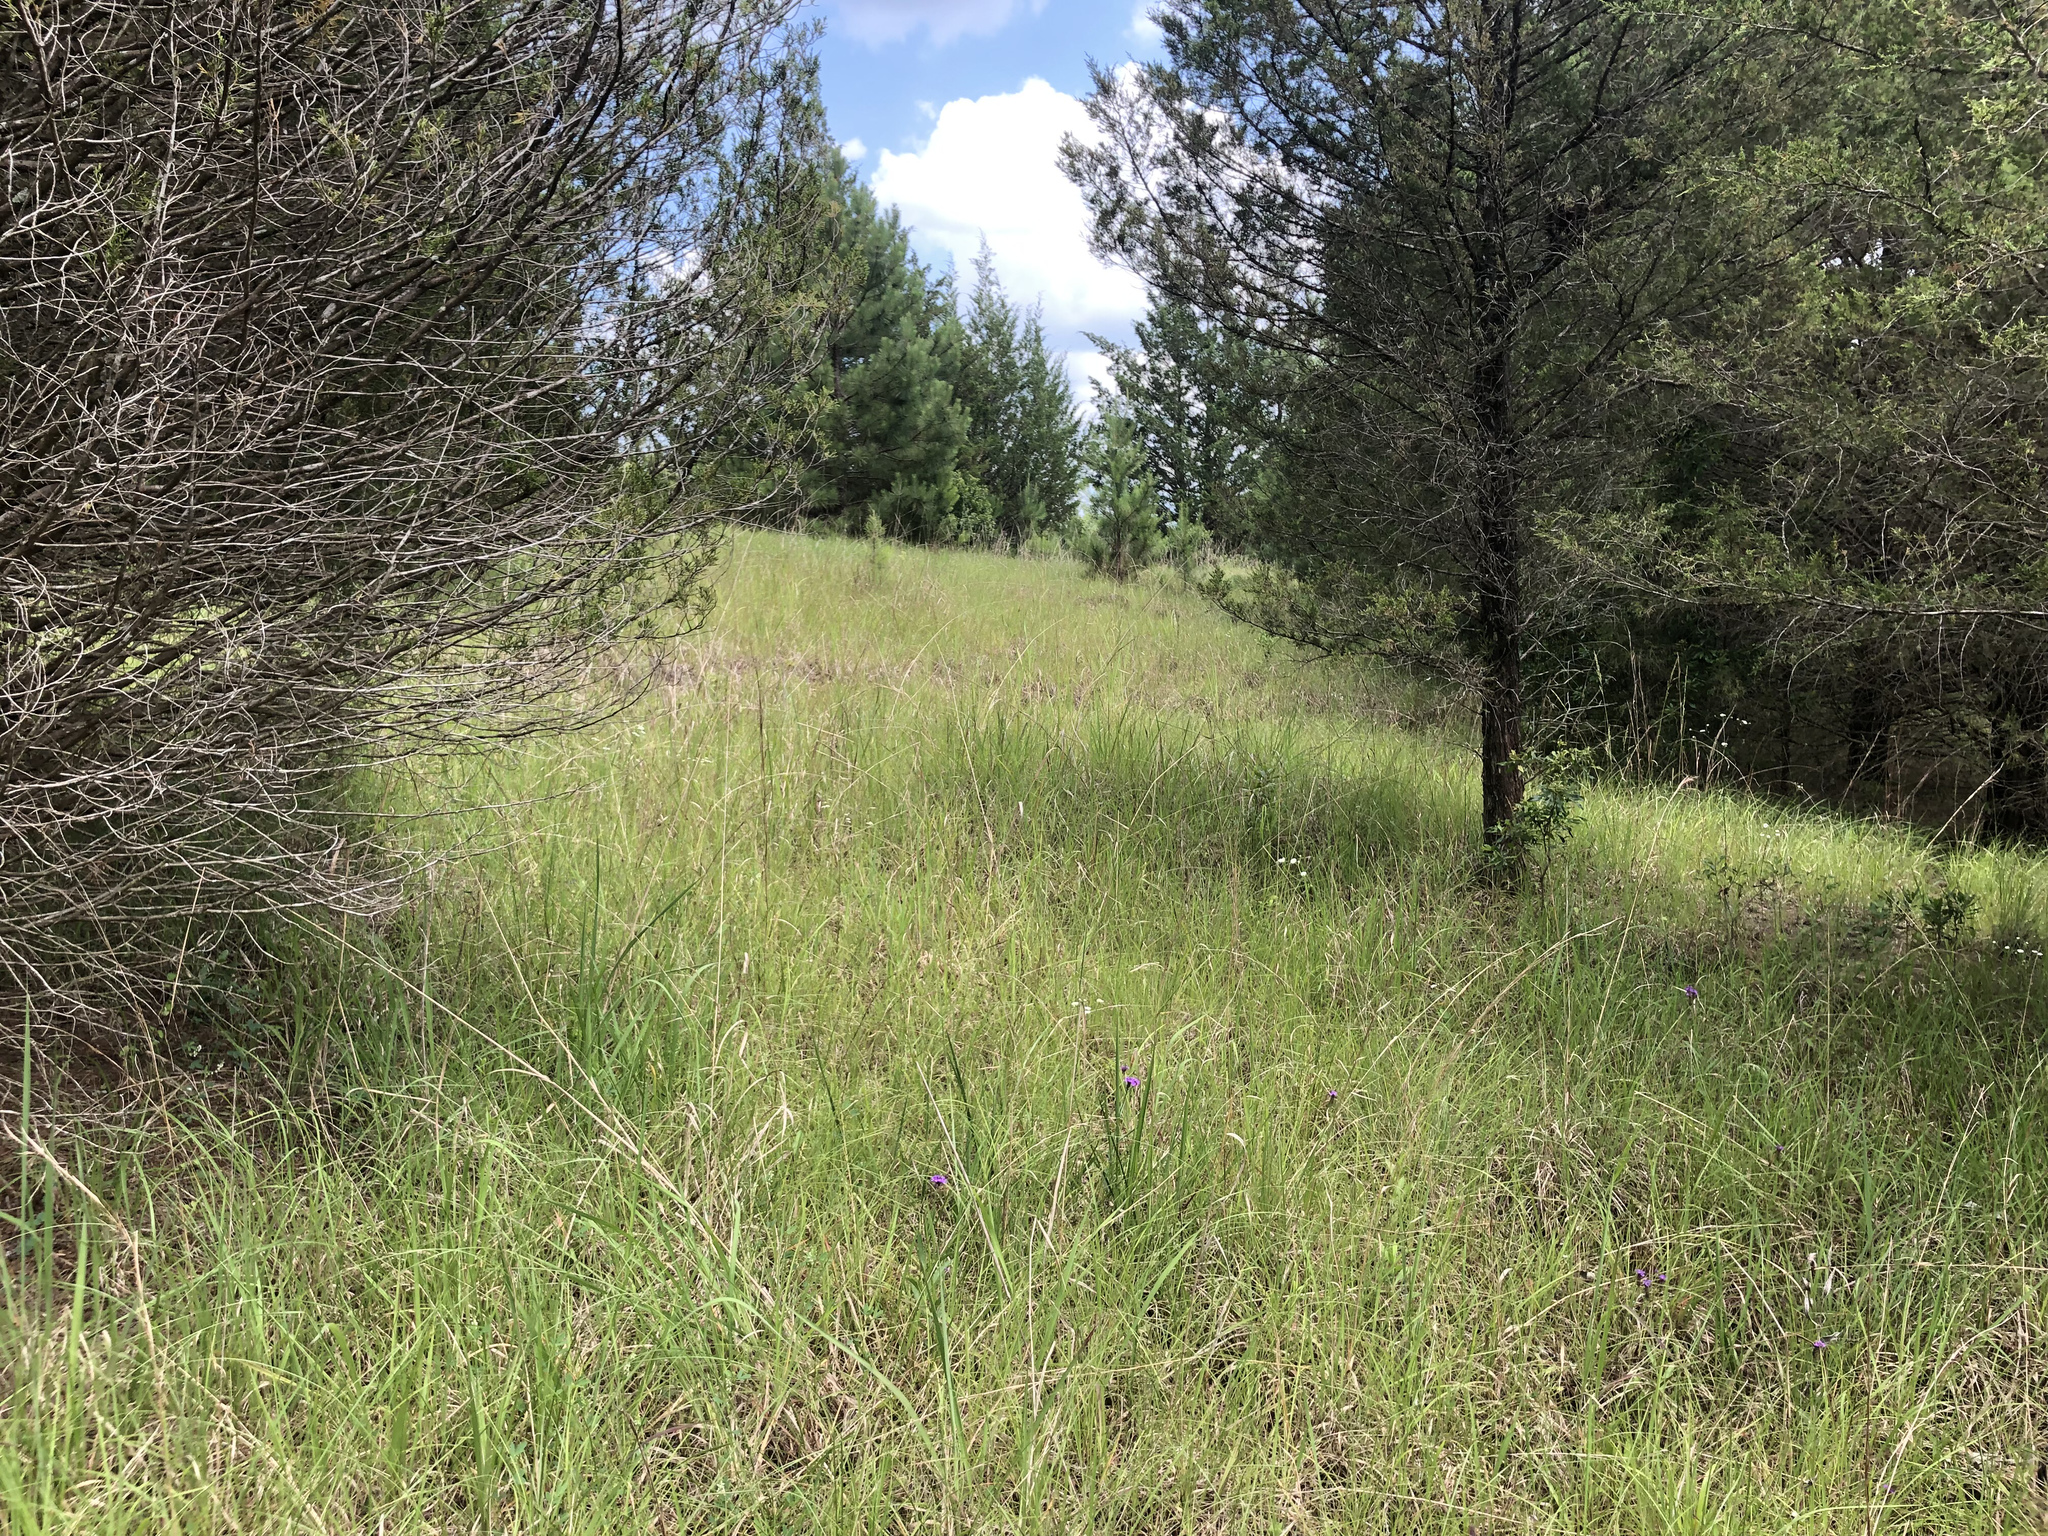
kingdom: Plantae
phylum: Tracheophyta
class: Pinopsida
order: Pinales
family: Cupressaceae
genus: Juniperus
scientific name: Juniperus virginiana
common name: Red juniper
